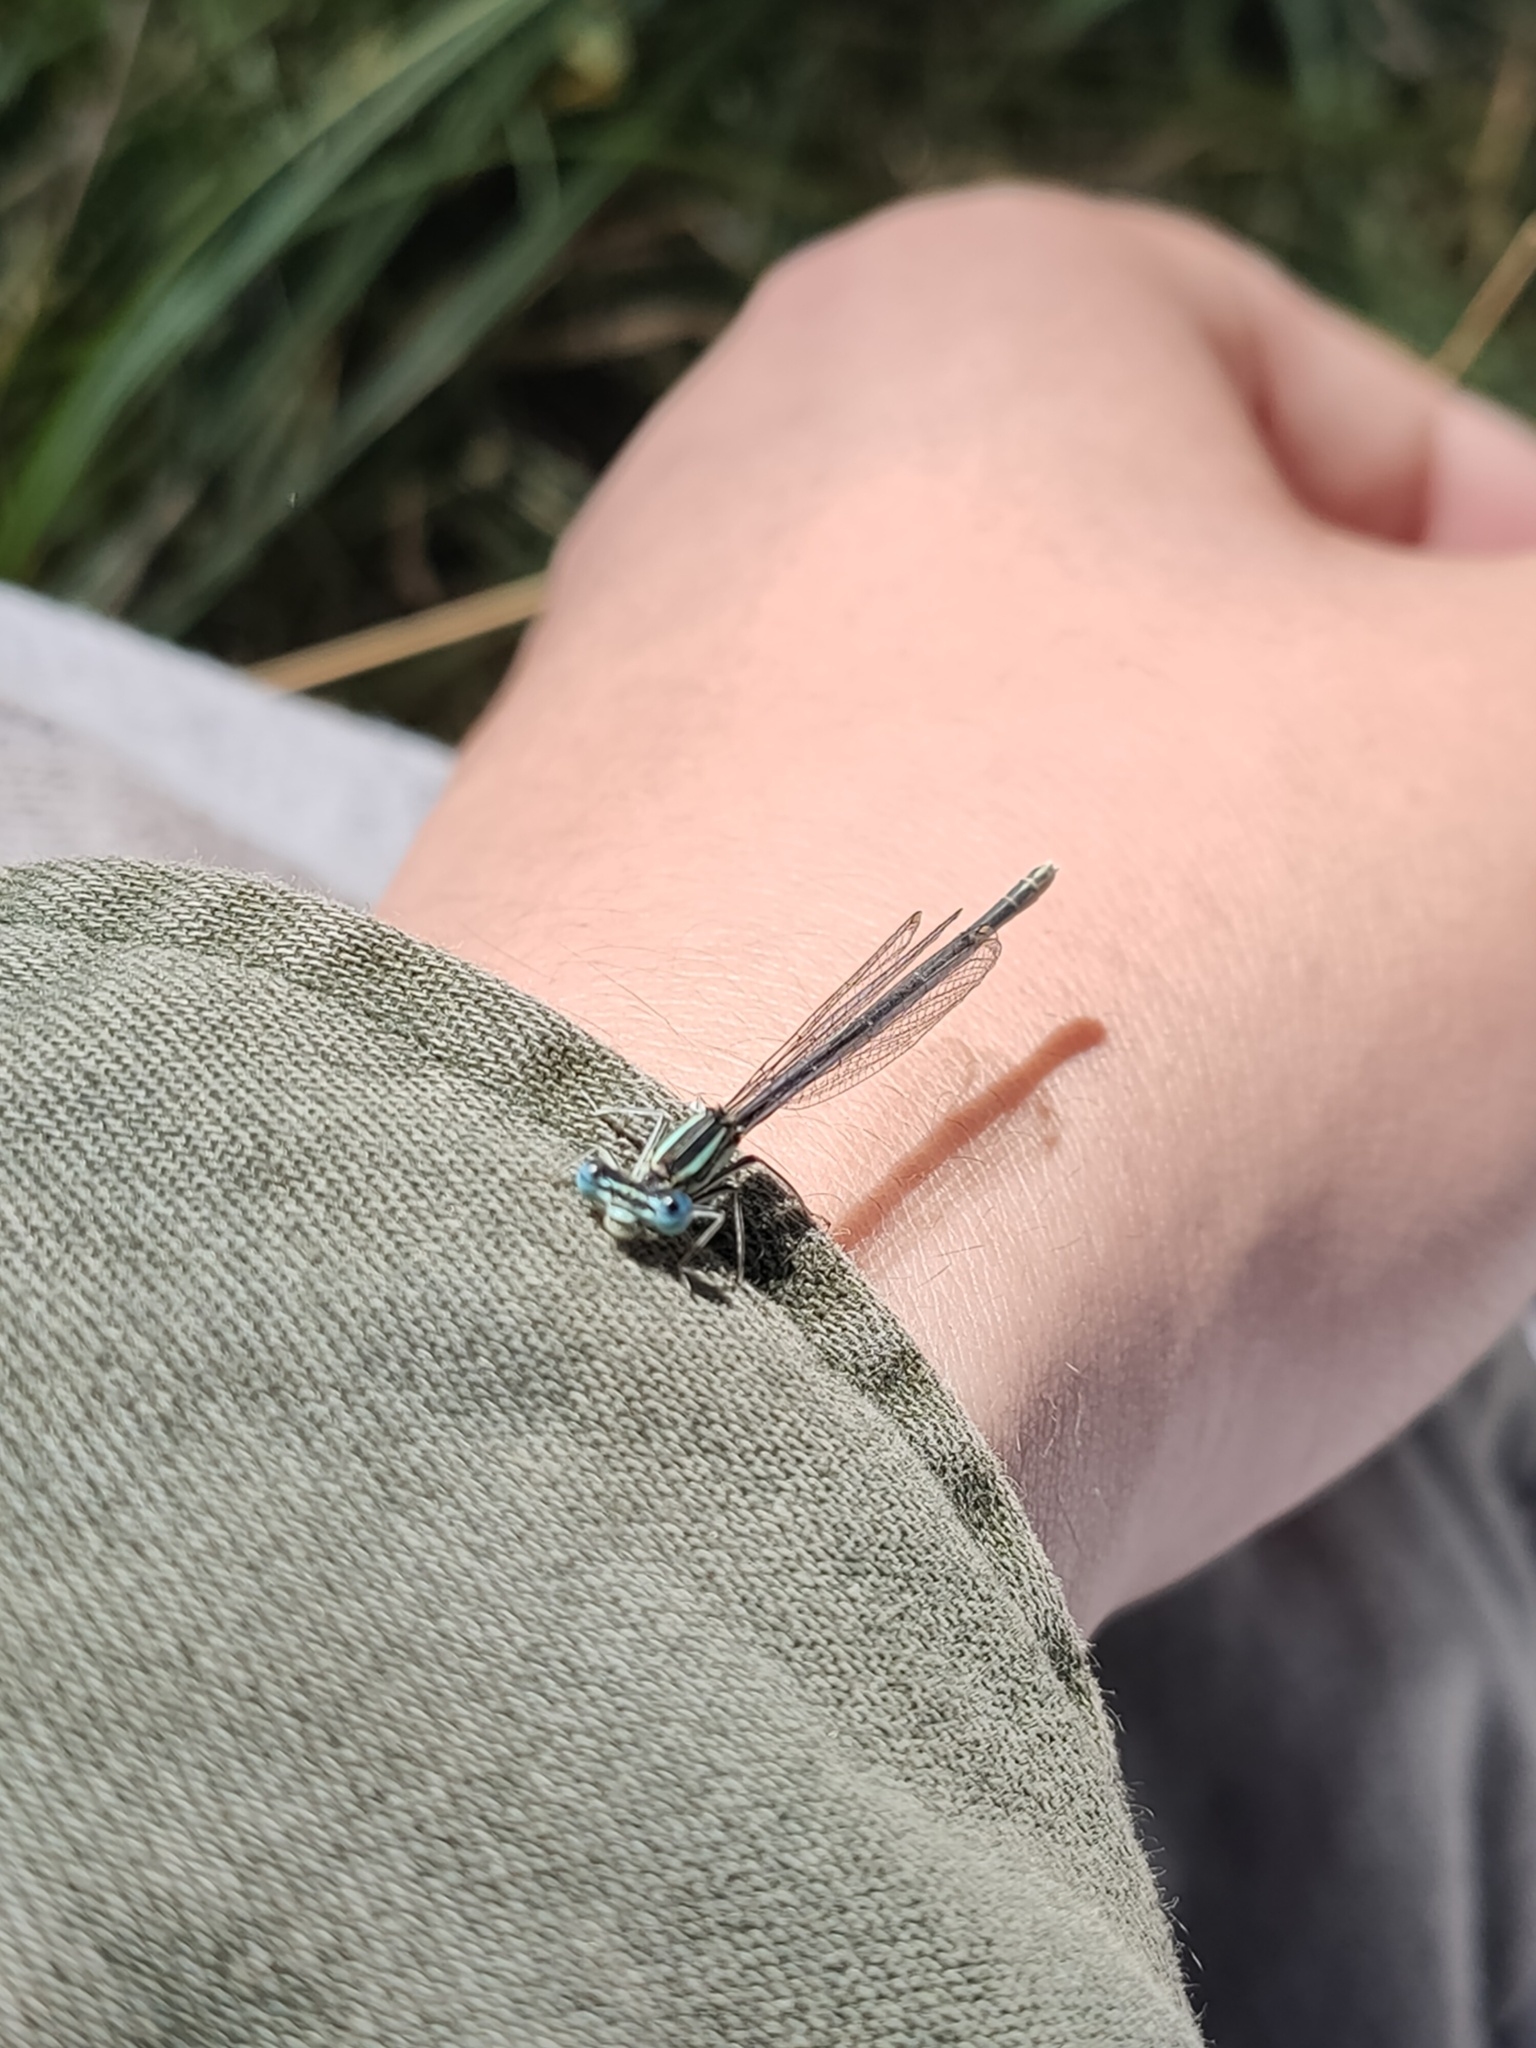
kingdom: Animalia
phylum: Arthropoda
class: Insecta
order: Odonata
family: Platycnemididae
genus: Platycnemis
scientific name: Platycnemis pennipes
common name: White-legged damselfly
